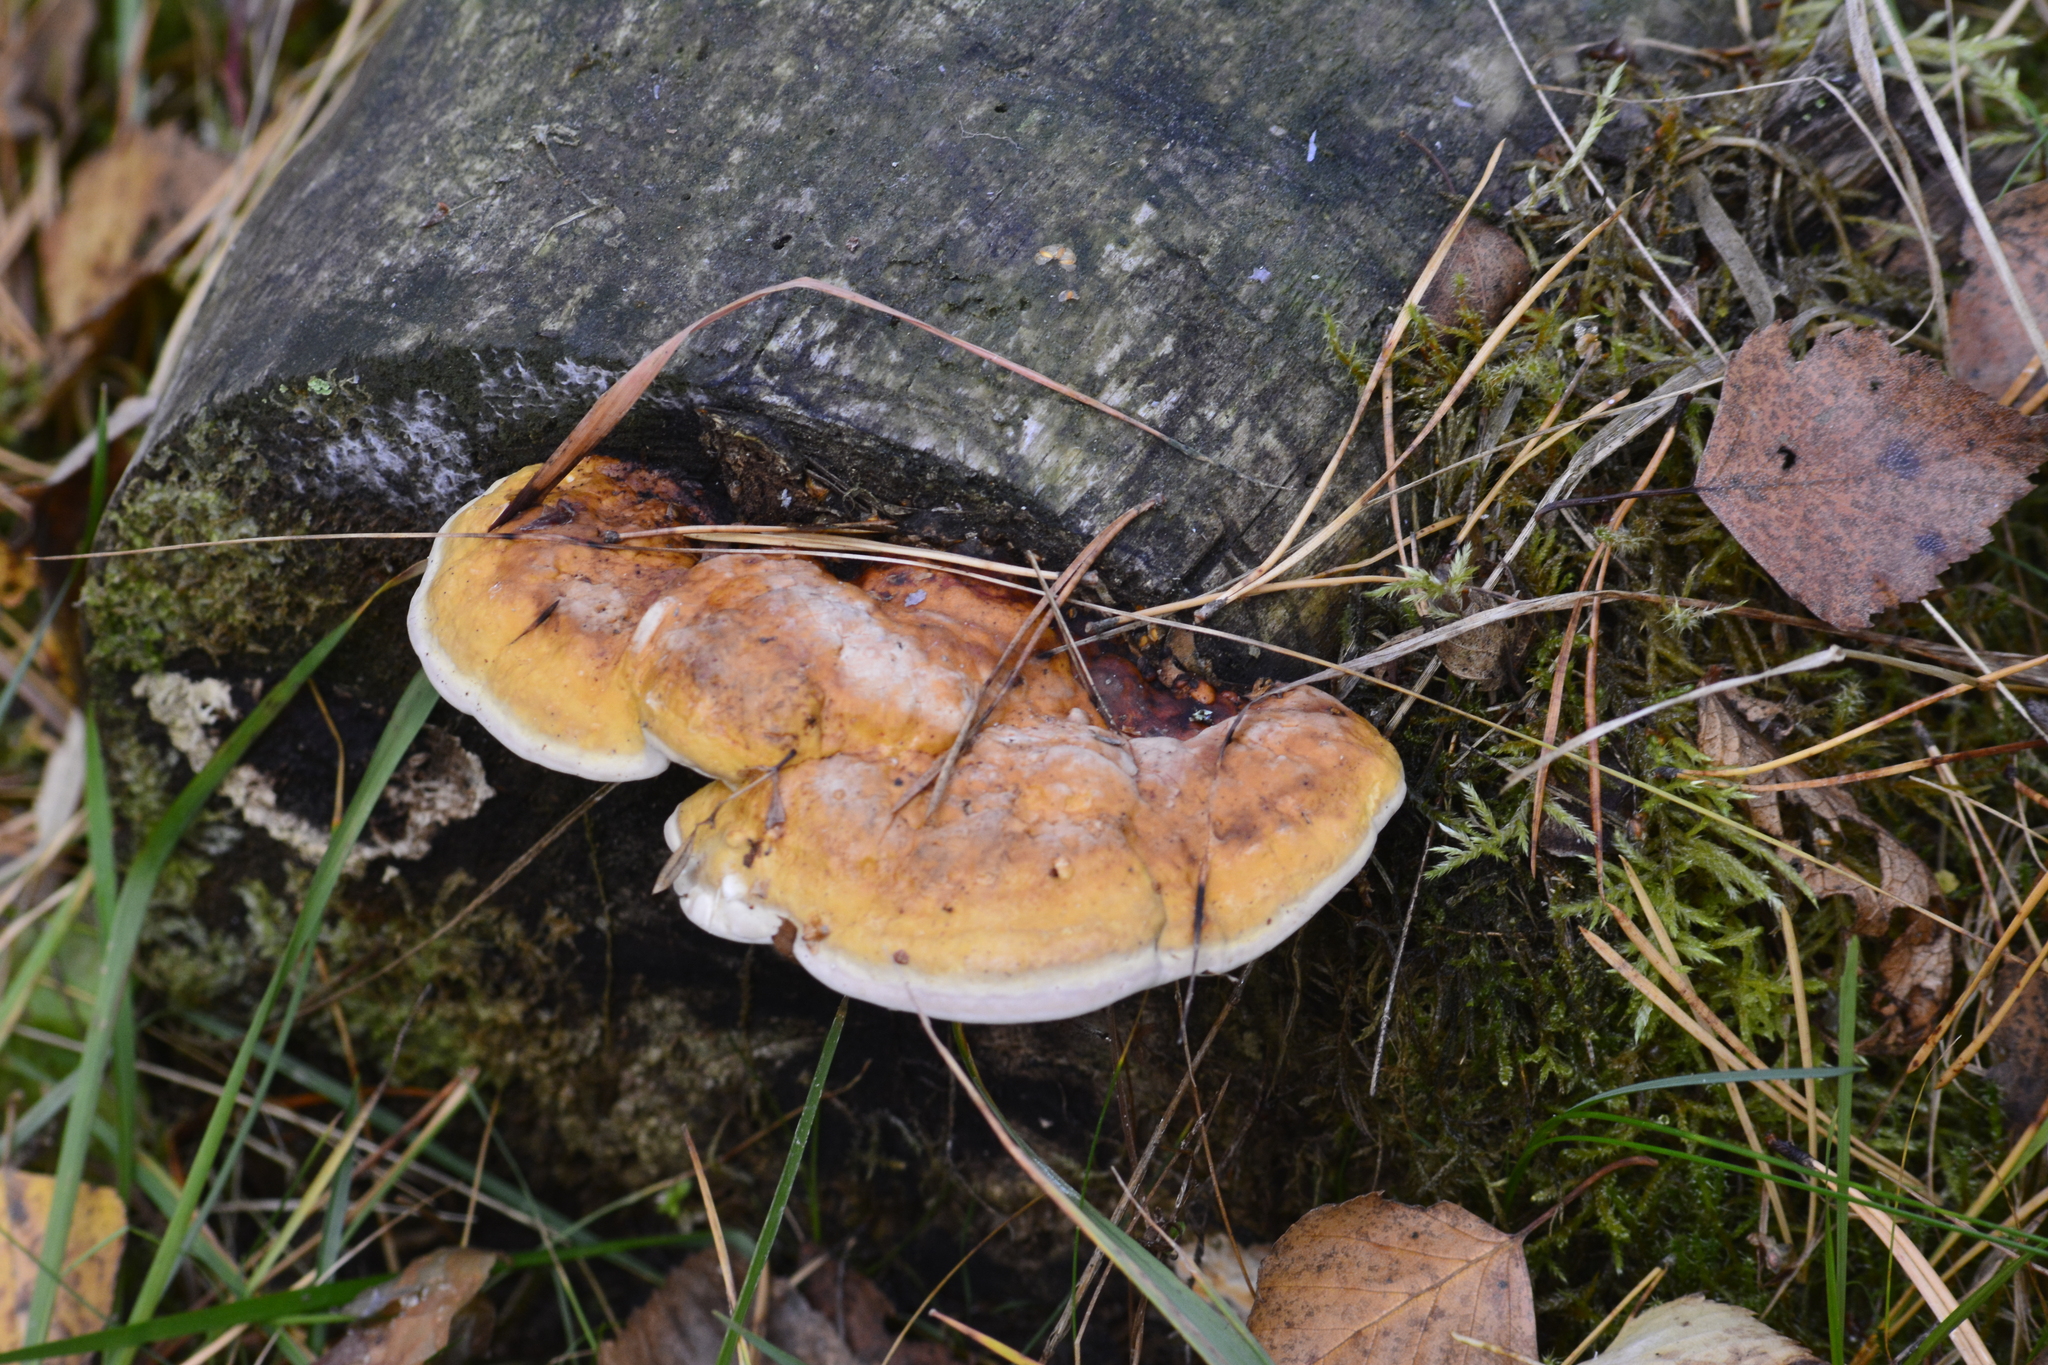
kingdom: Fungi
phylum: Basidiomycota
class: Agaricomycetes
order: Polyporales
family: Fomitopsidaceae
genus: Fomitopsis
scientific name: Fomitopsis pinicola
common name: Red-belted bracket
